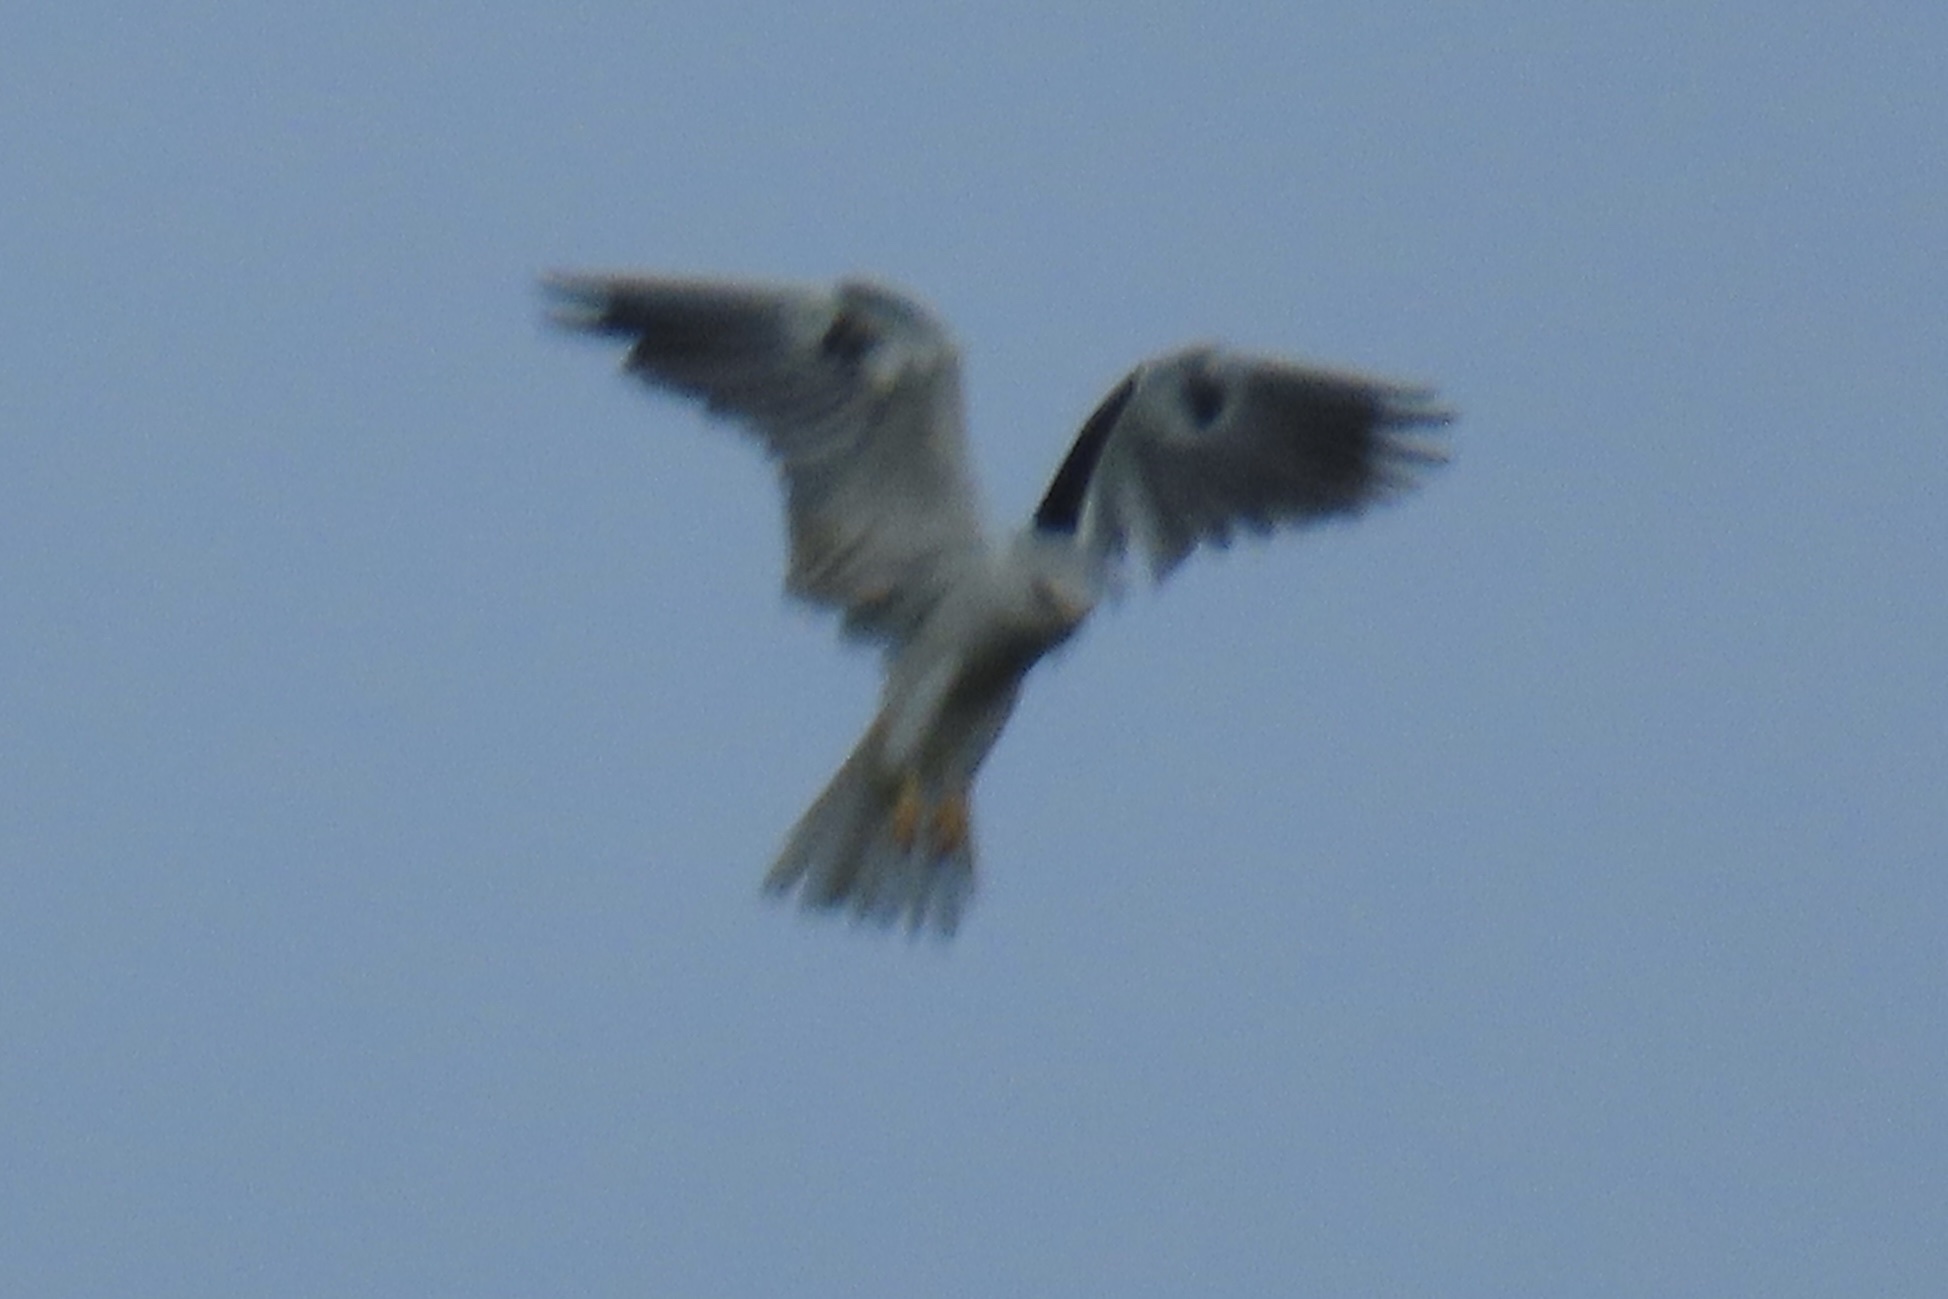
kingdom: Animalia
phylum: Chordata
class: Aves
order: Accipitriformes
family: Accipitridae
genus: Elanus
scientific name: Elanus leucurus
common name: White-tailed kite
